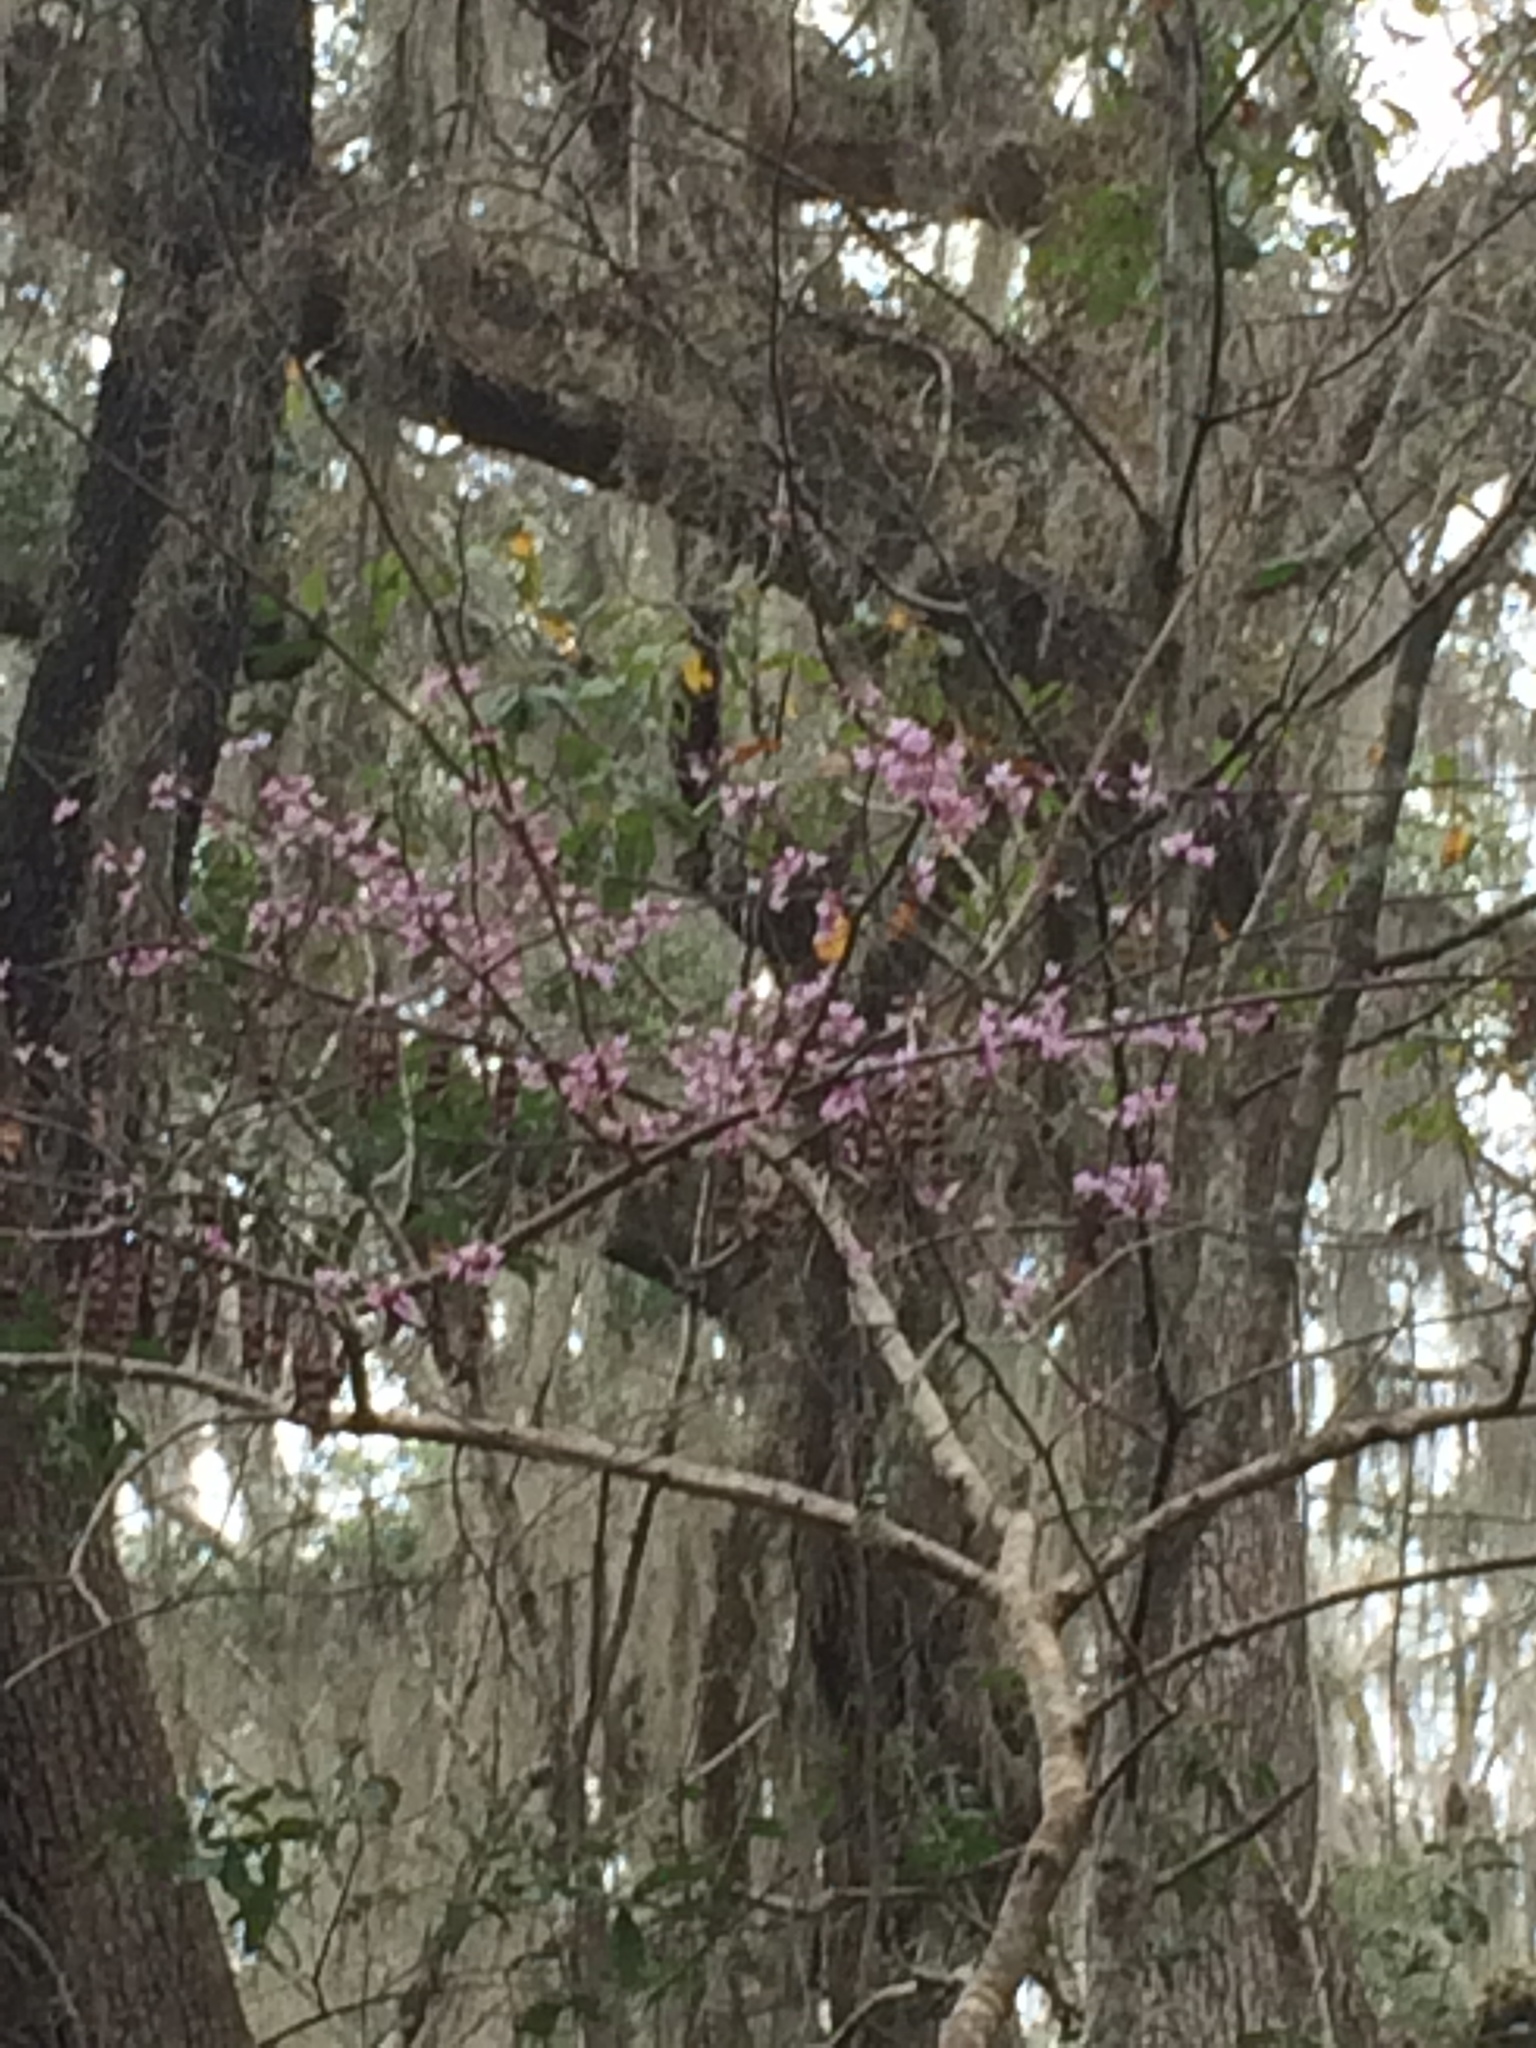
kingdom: Plantae
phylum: Tracheophyta
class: Magnoliopsida
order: Fabales
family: Fabaceae
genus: Cercis
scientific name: Cercis canadensis
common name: Eastern redbud
